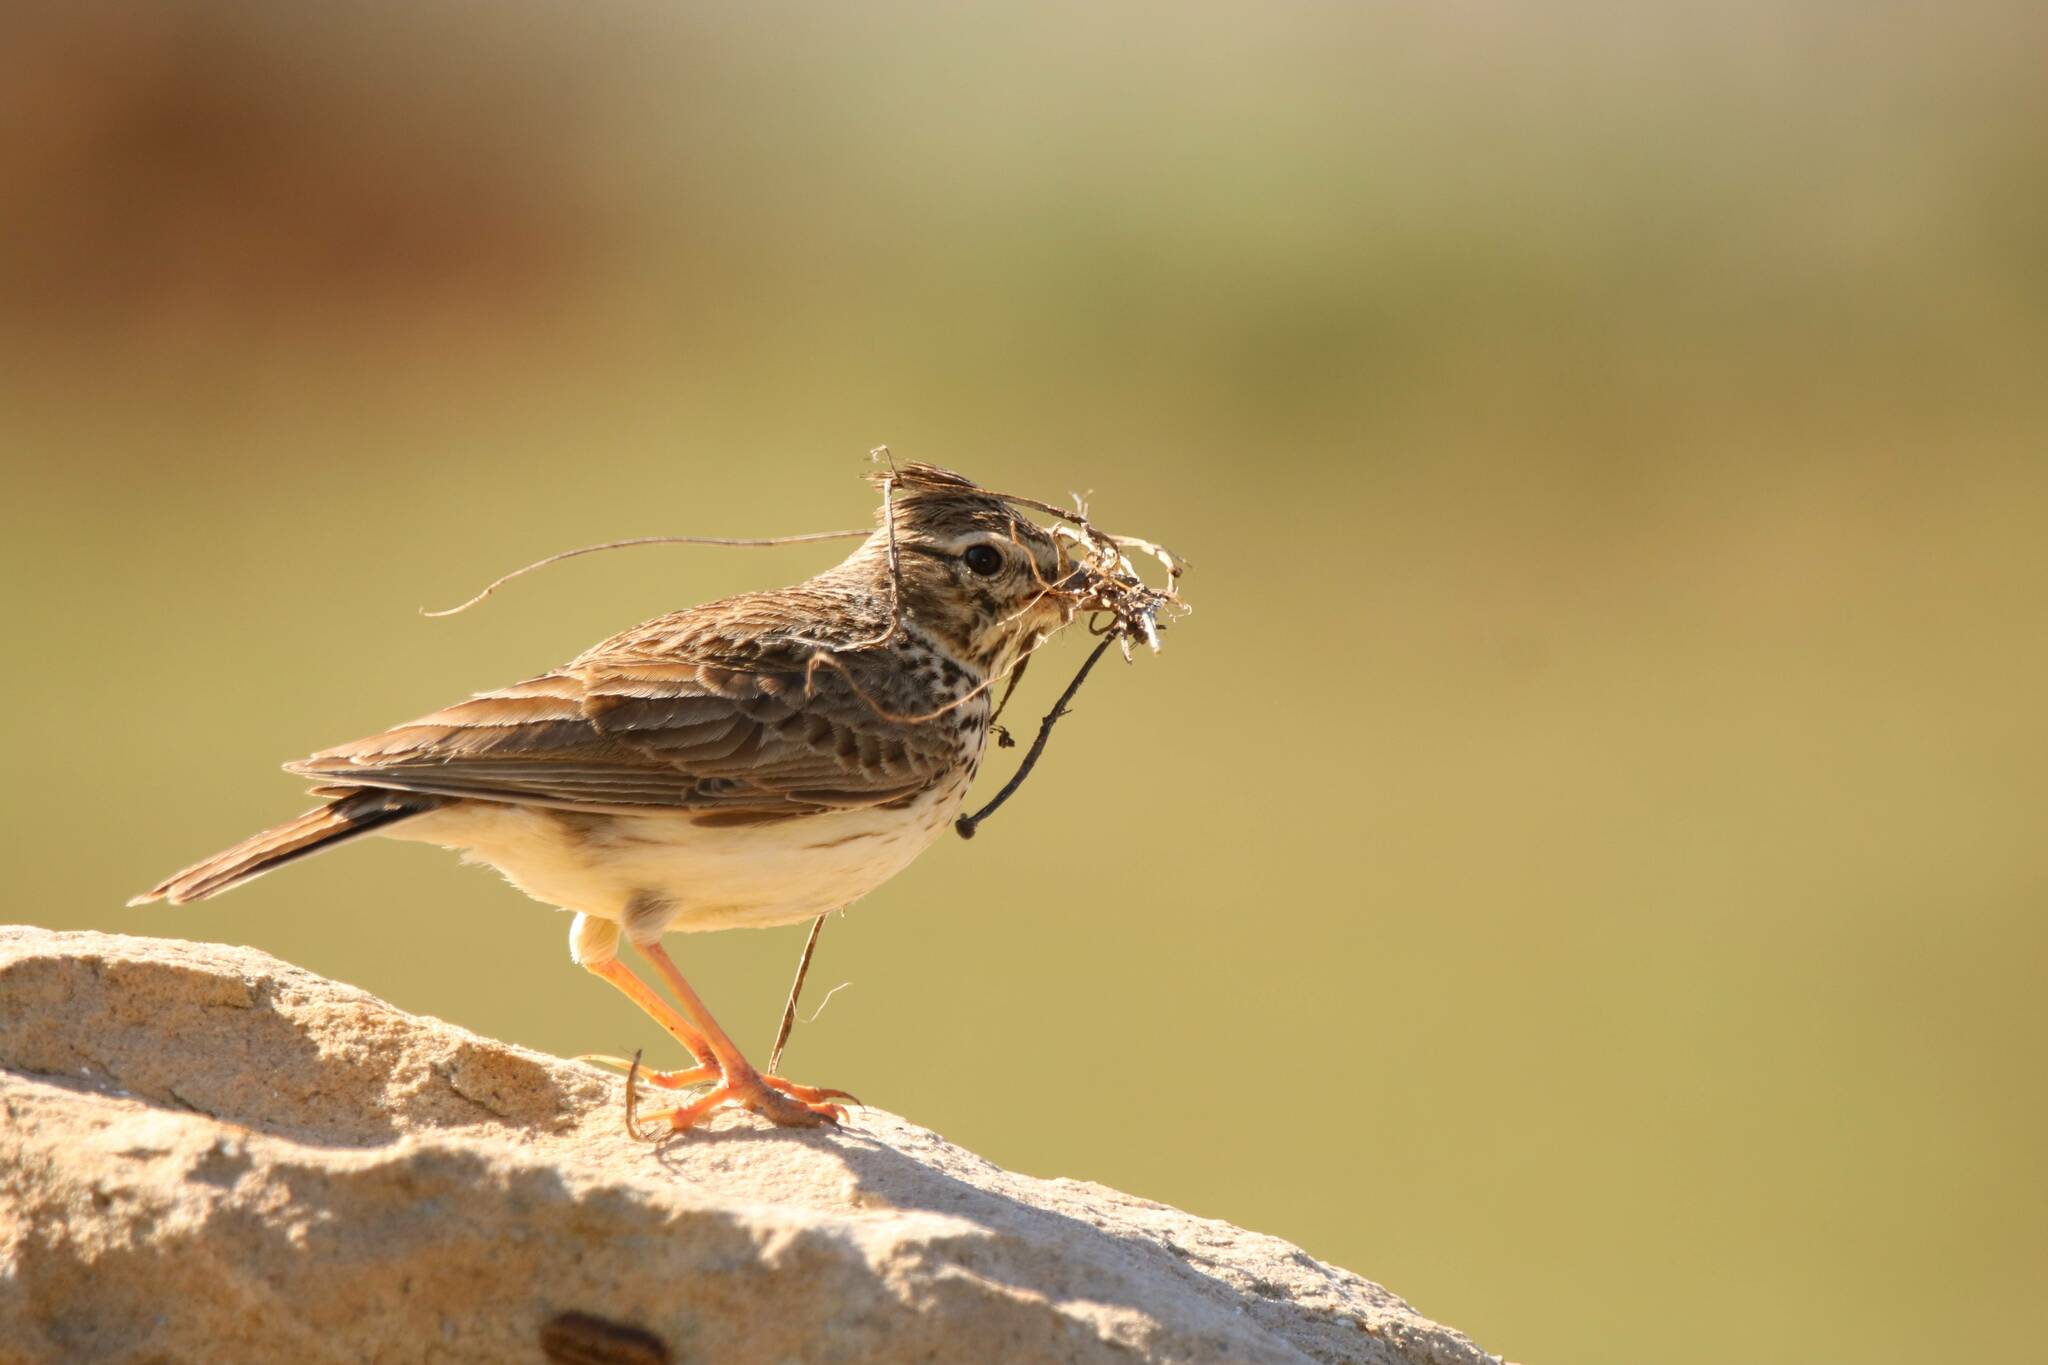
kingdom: Animalia
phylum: Chordata
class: Aves
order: Passeriformes
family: Alaudidae
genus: Galerida
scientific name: Galerida theklae
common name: Thekla lark
